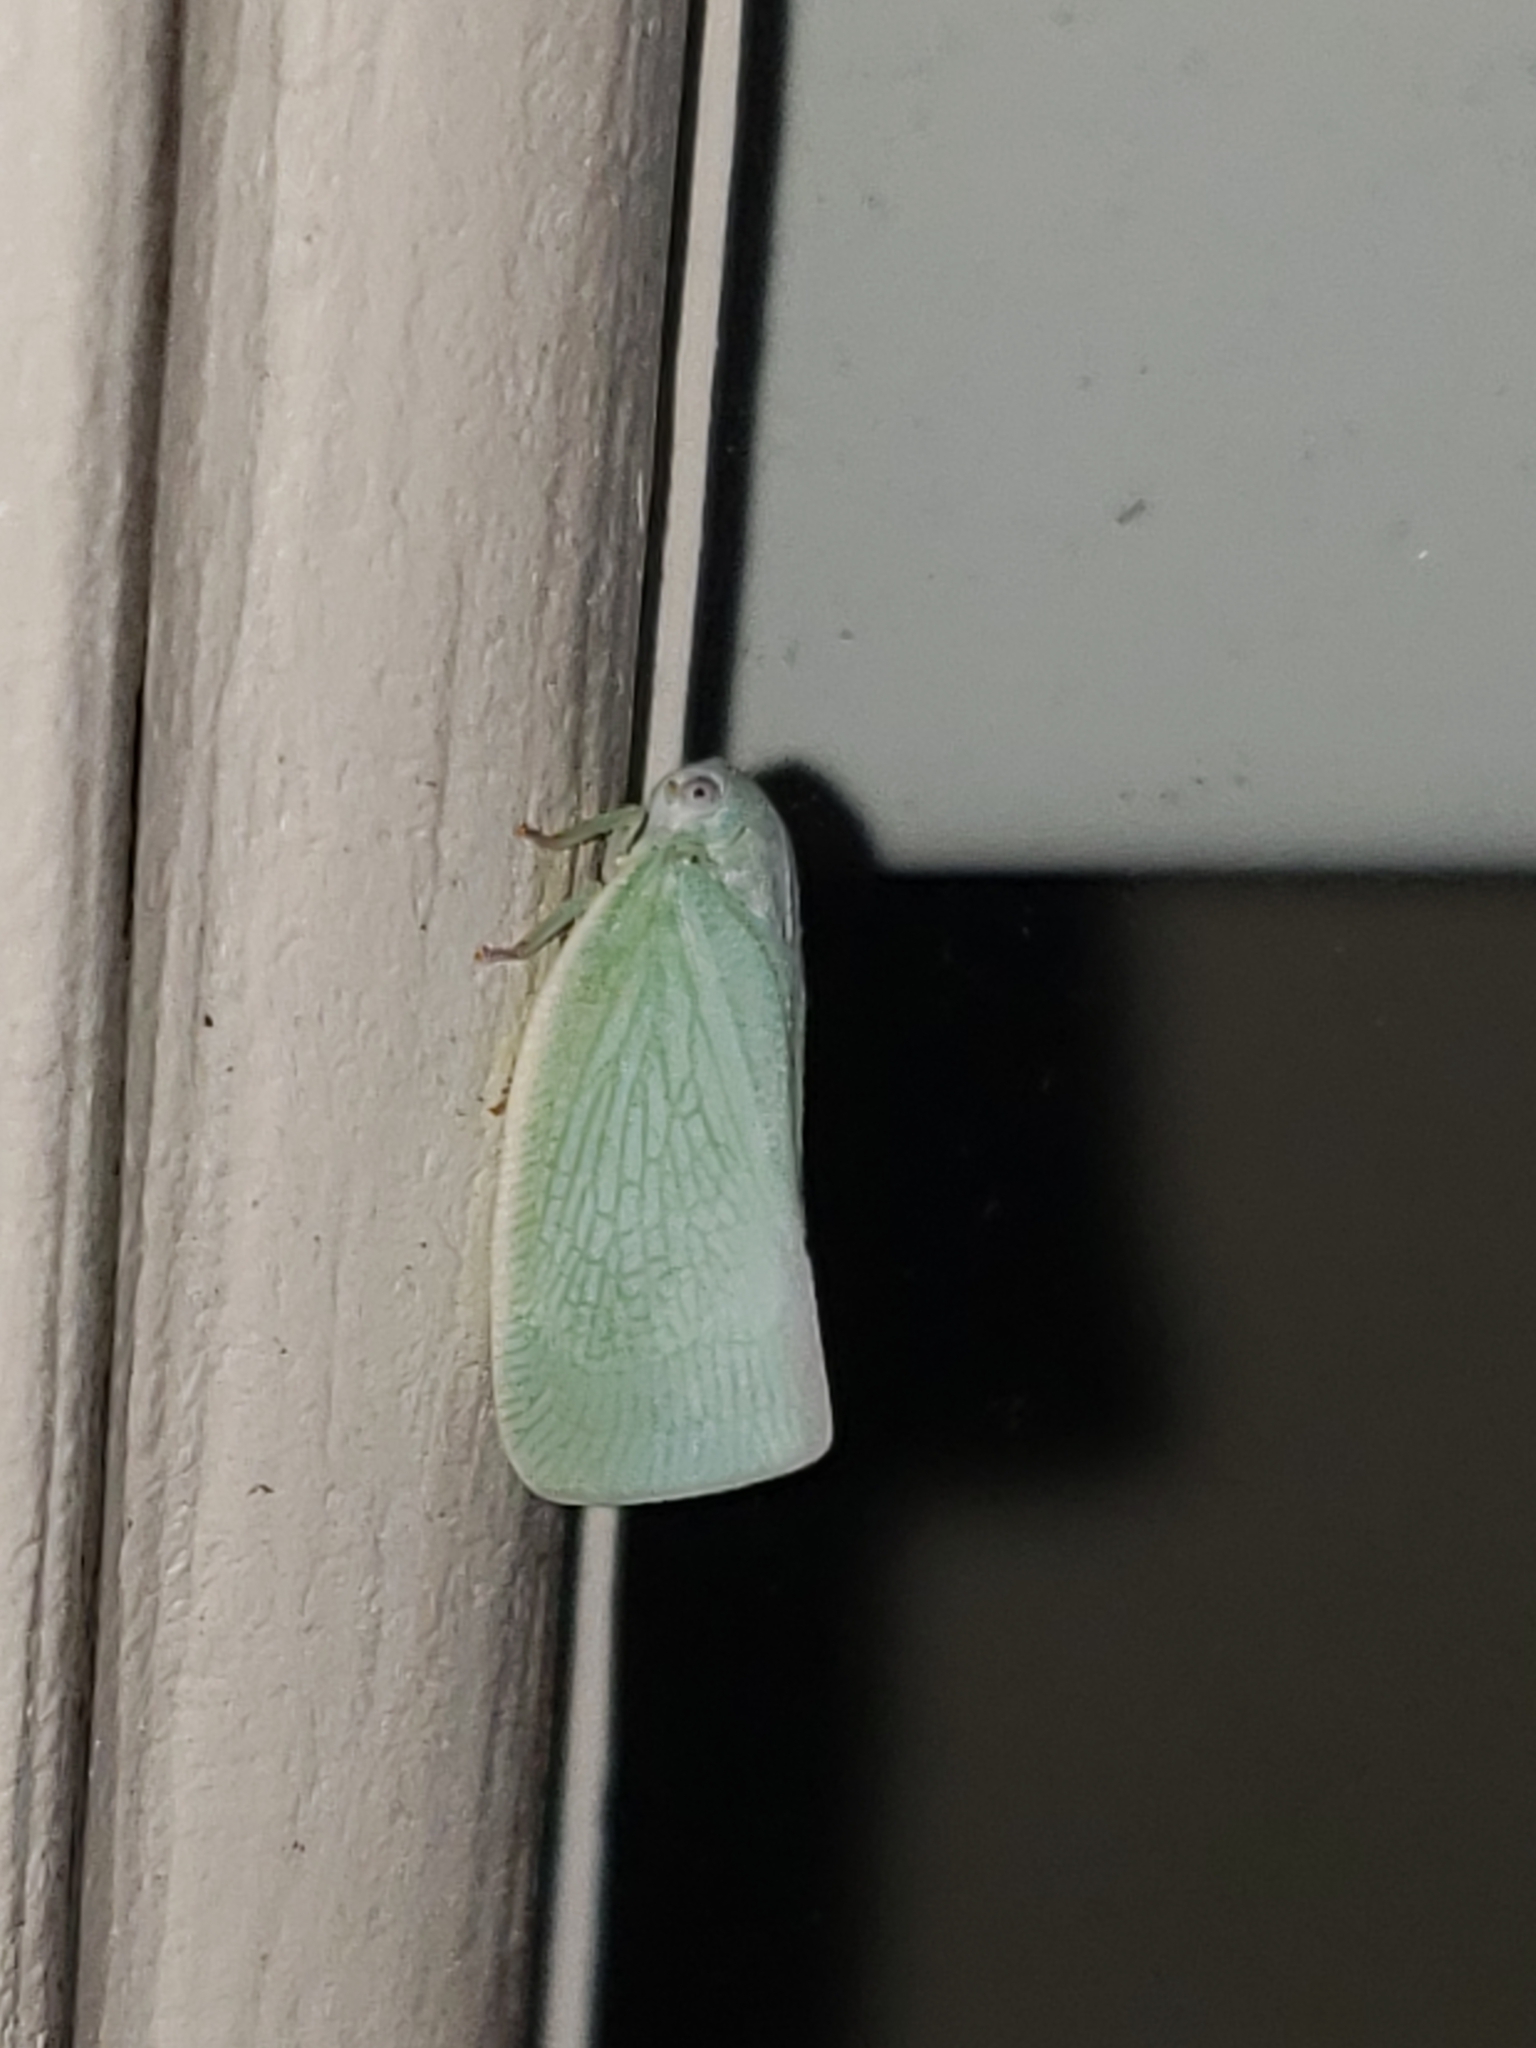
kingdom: Animalia
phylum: Arthropoda
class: Insecta
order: Hemiptera
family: Flatidae
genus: Flatormenis
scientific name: Flatormenis proxima
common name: Northern flatid planthopper
